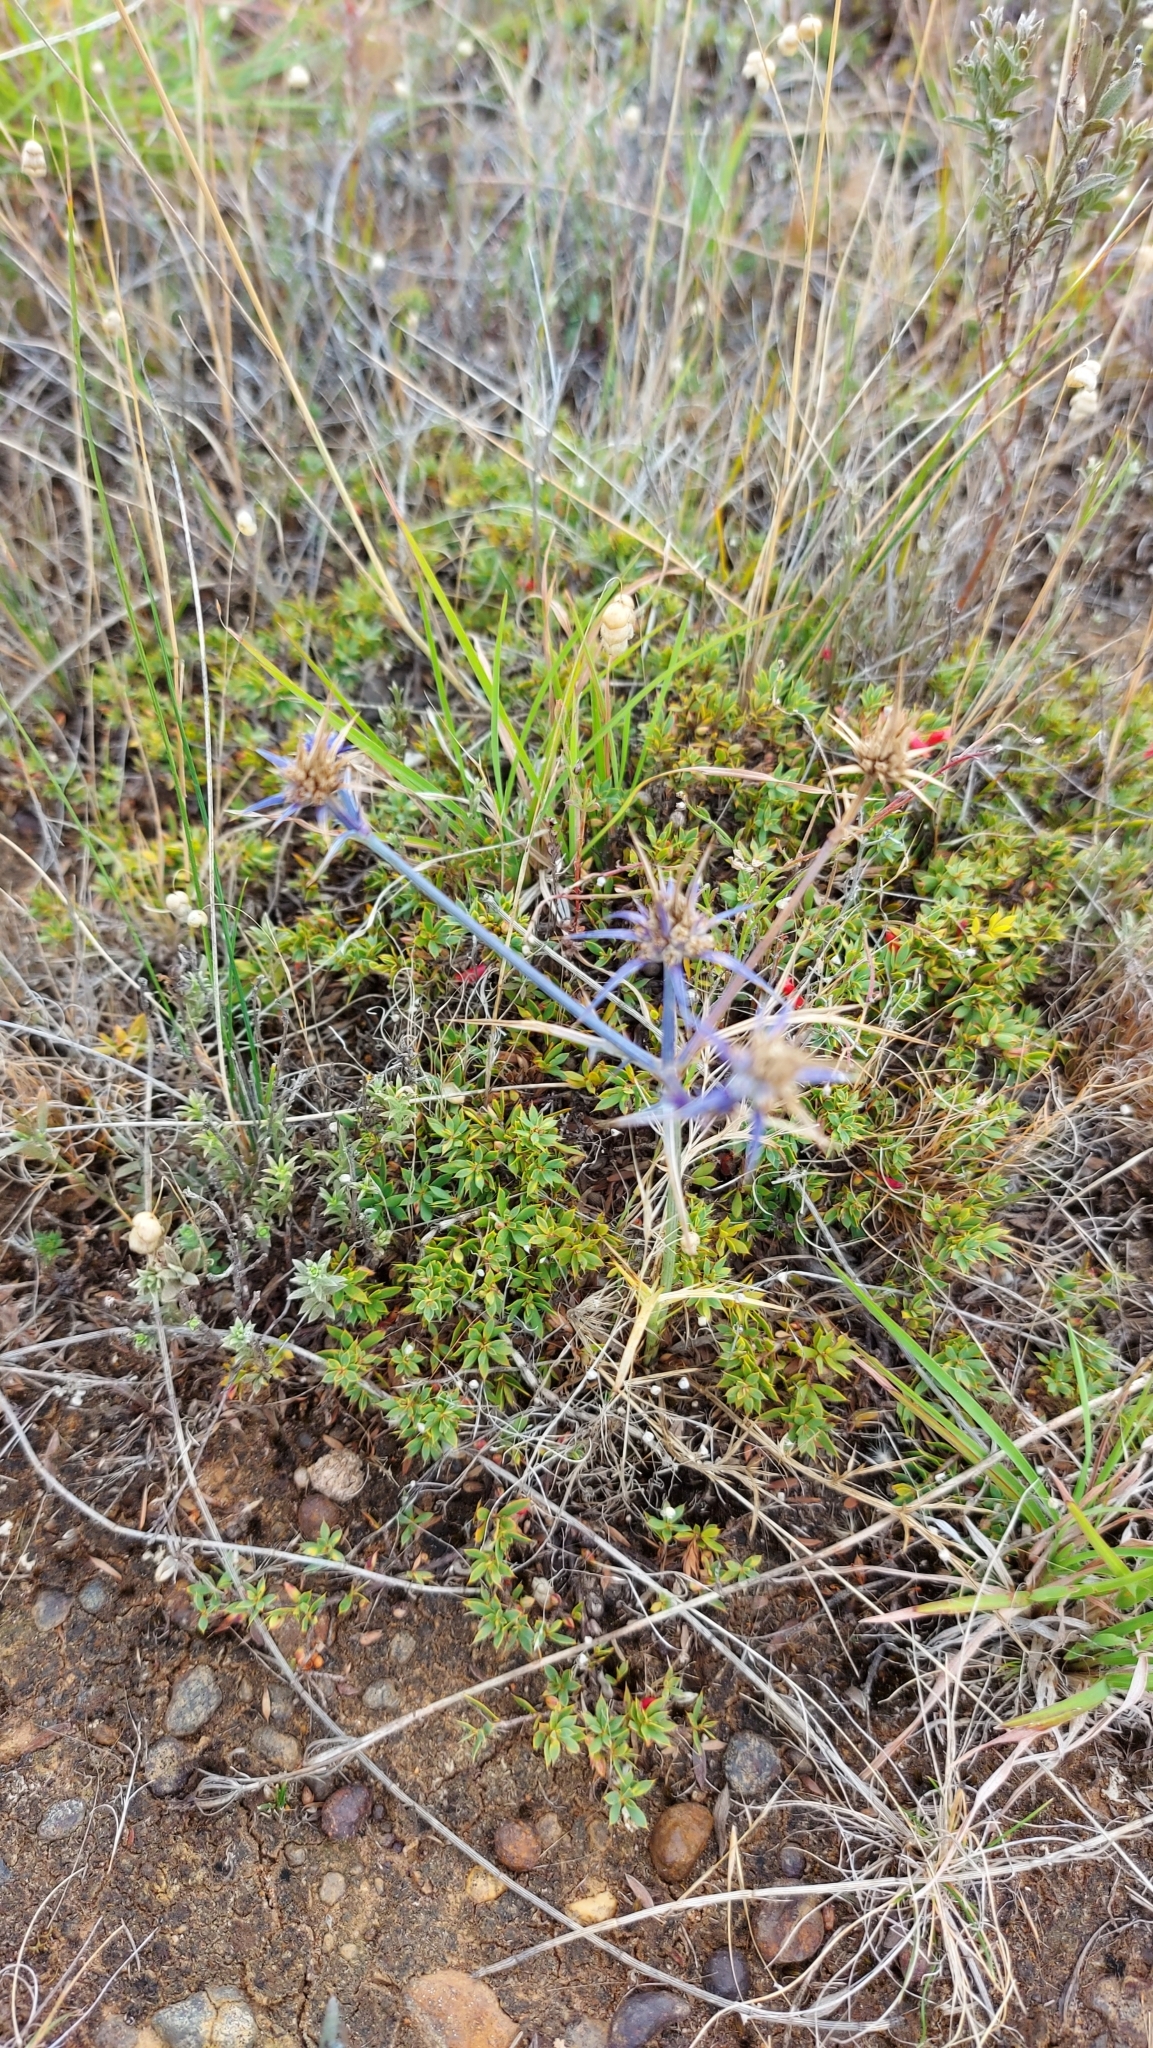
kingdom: Plantae
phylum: Tracheophyta
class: Magnoliopsida
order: Apiales
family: Apiaceae
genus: Eryngium
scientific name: Eryngium ovinum
